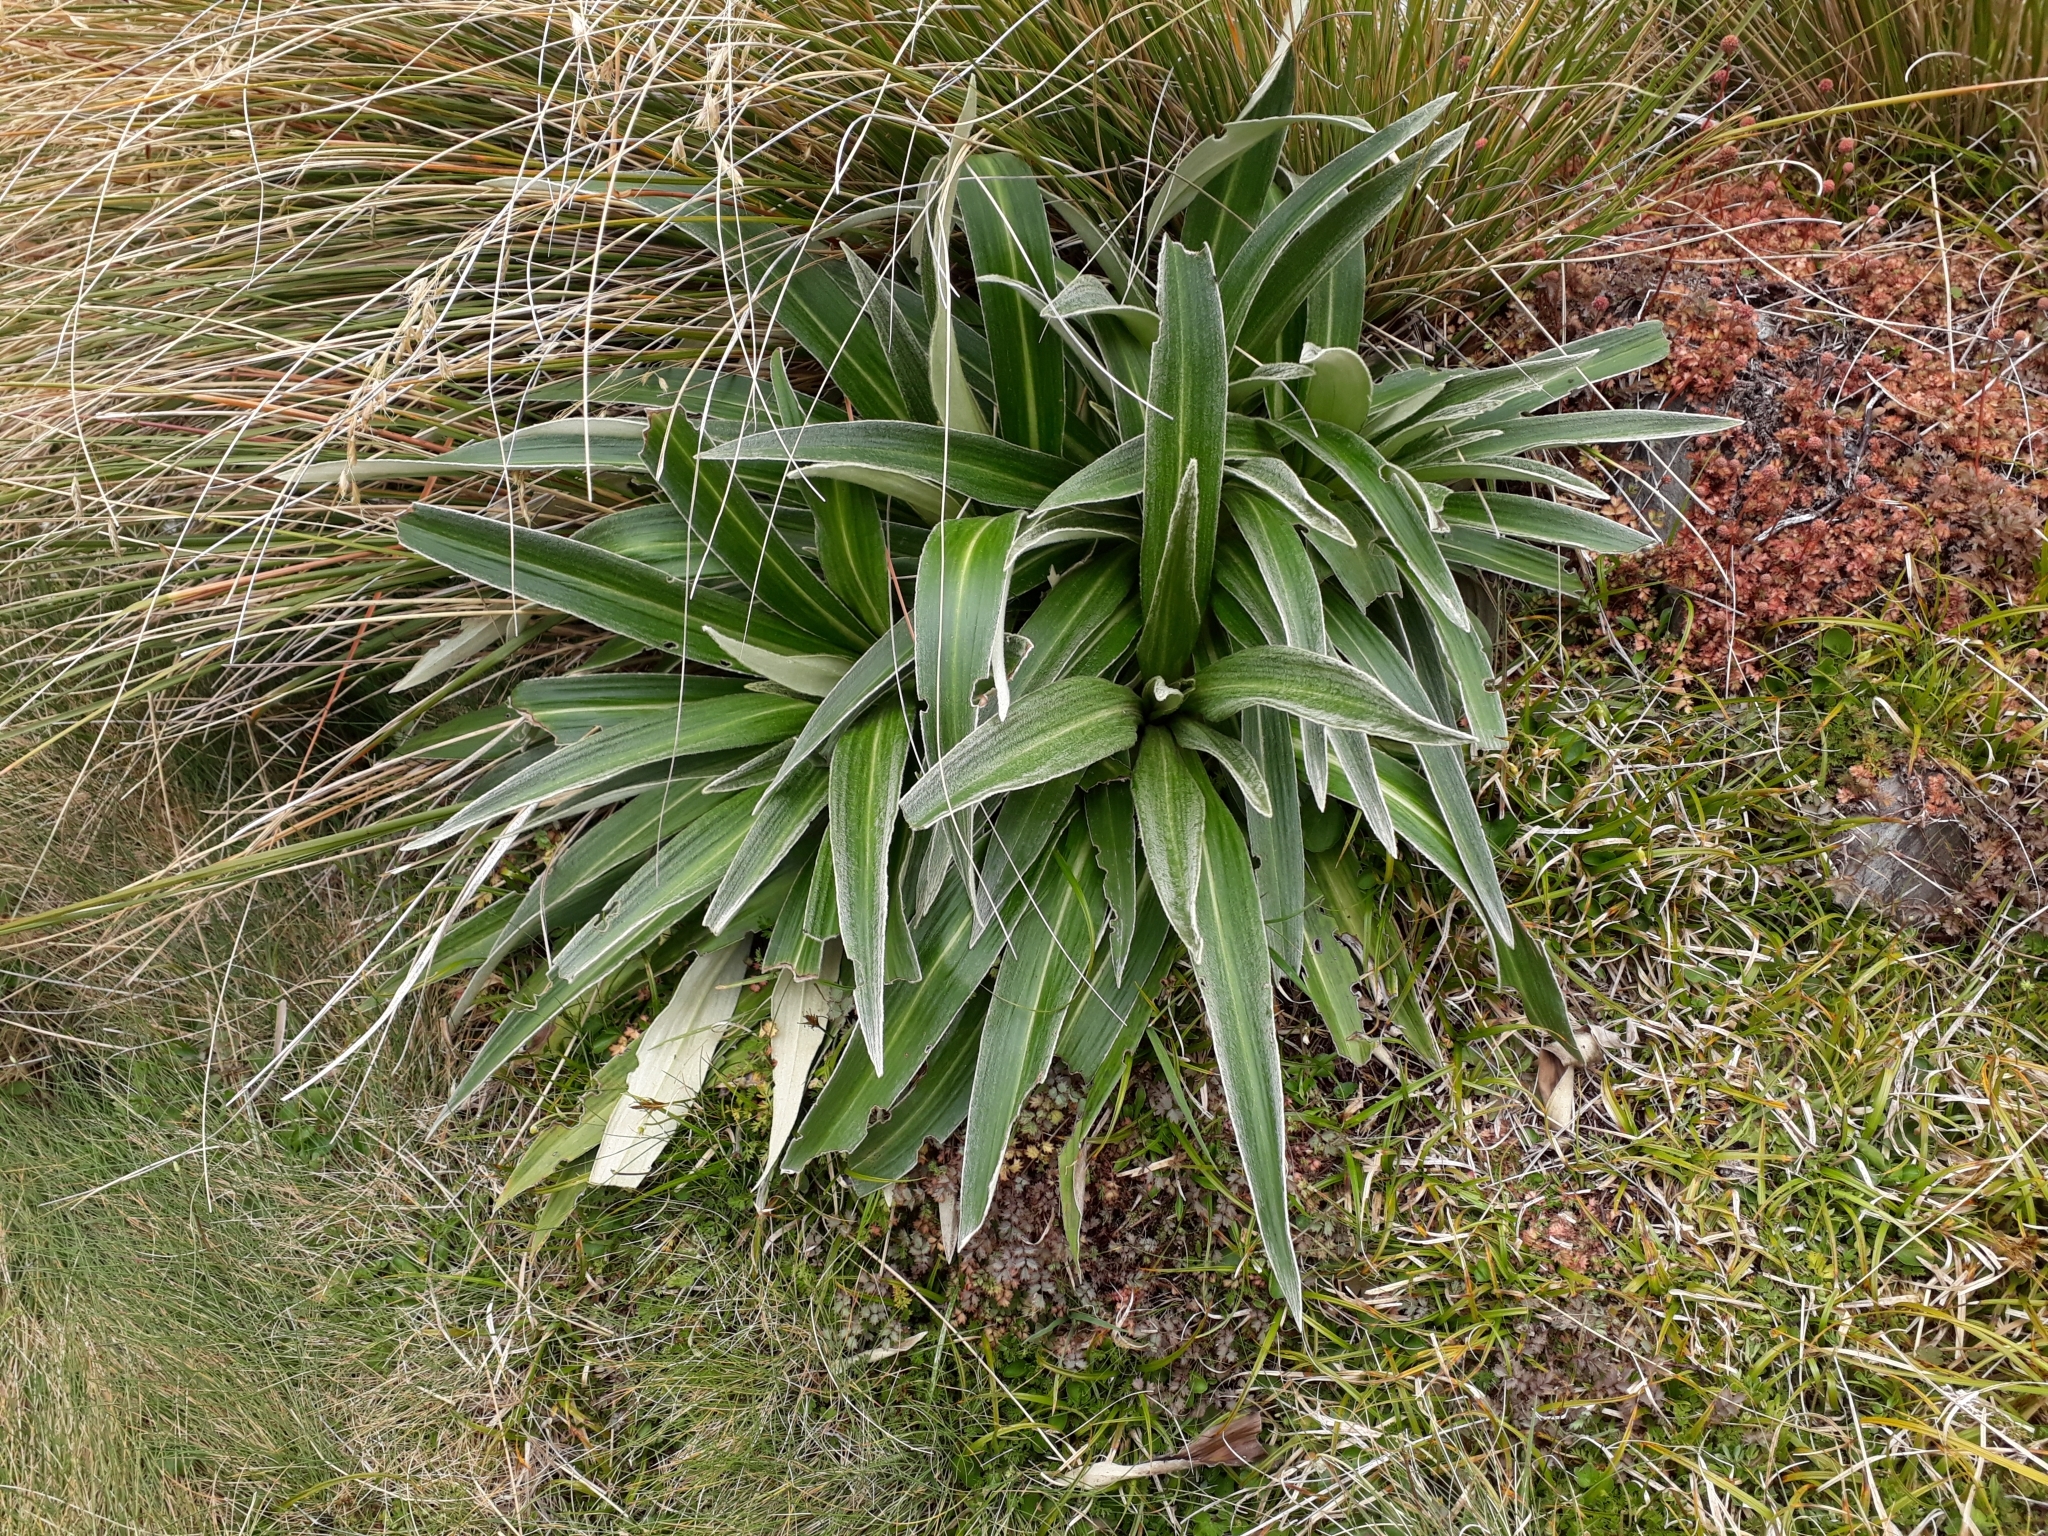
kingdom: Plantae
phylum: Tracheophyta
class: Magnoliopsida
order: Asterales
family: Asteraceae
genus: Celmisia
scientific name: Celmisia verbascifolia
